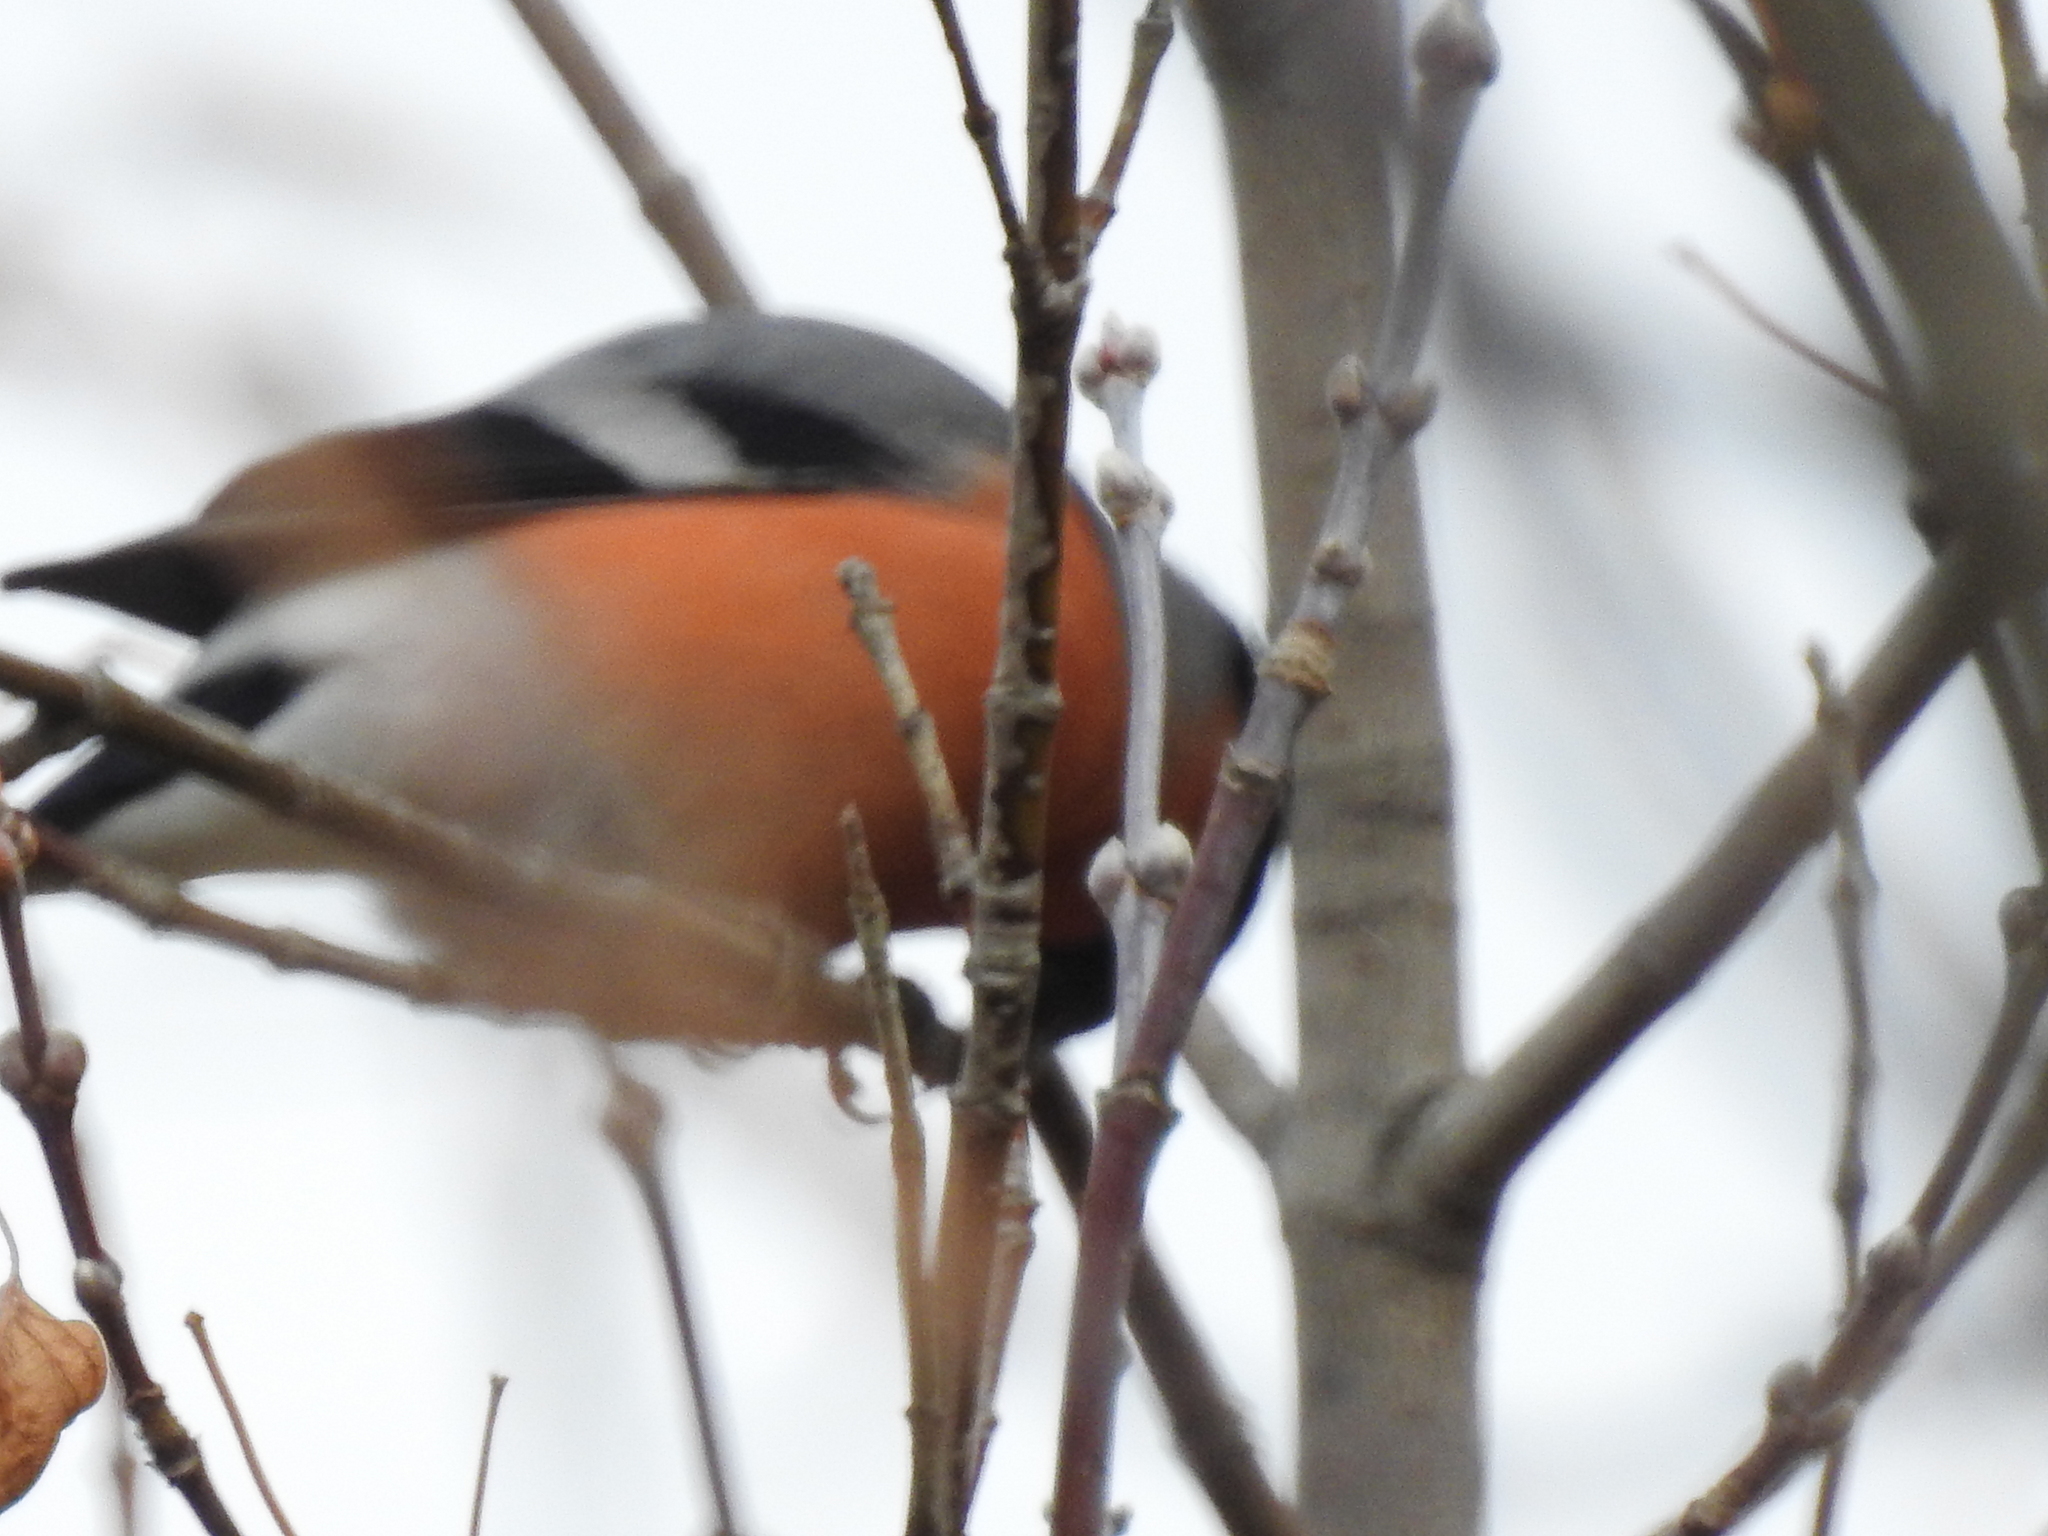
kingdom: Animalia
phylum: Chordata
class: Aves
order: Passeriformes
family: Fringillidae
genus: Pyrrhula
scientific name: Pyrrhula pyrrhula
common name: Eurasian bullfinch
